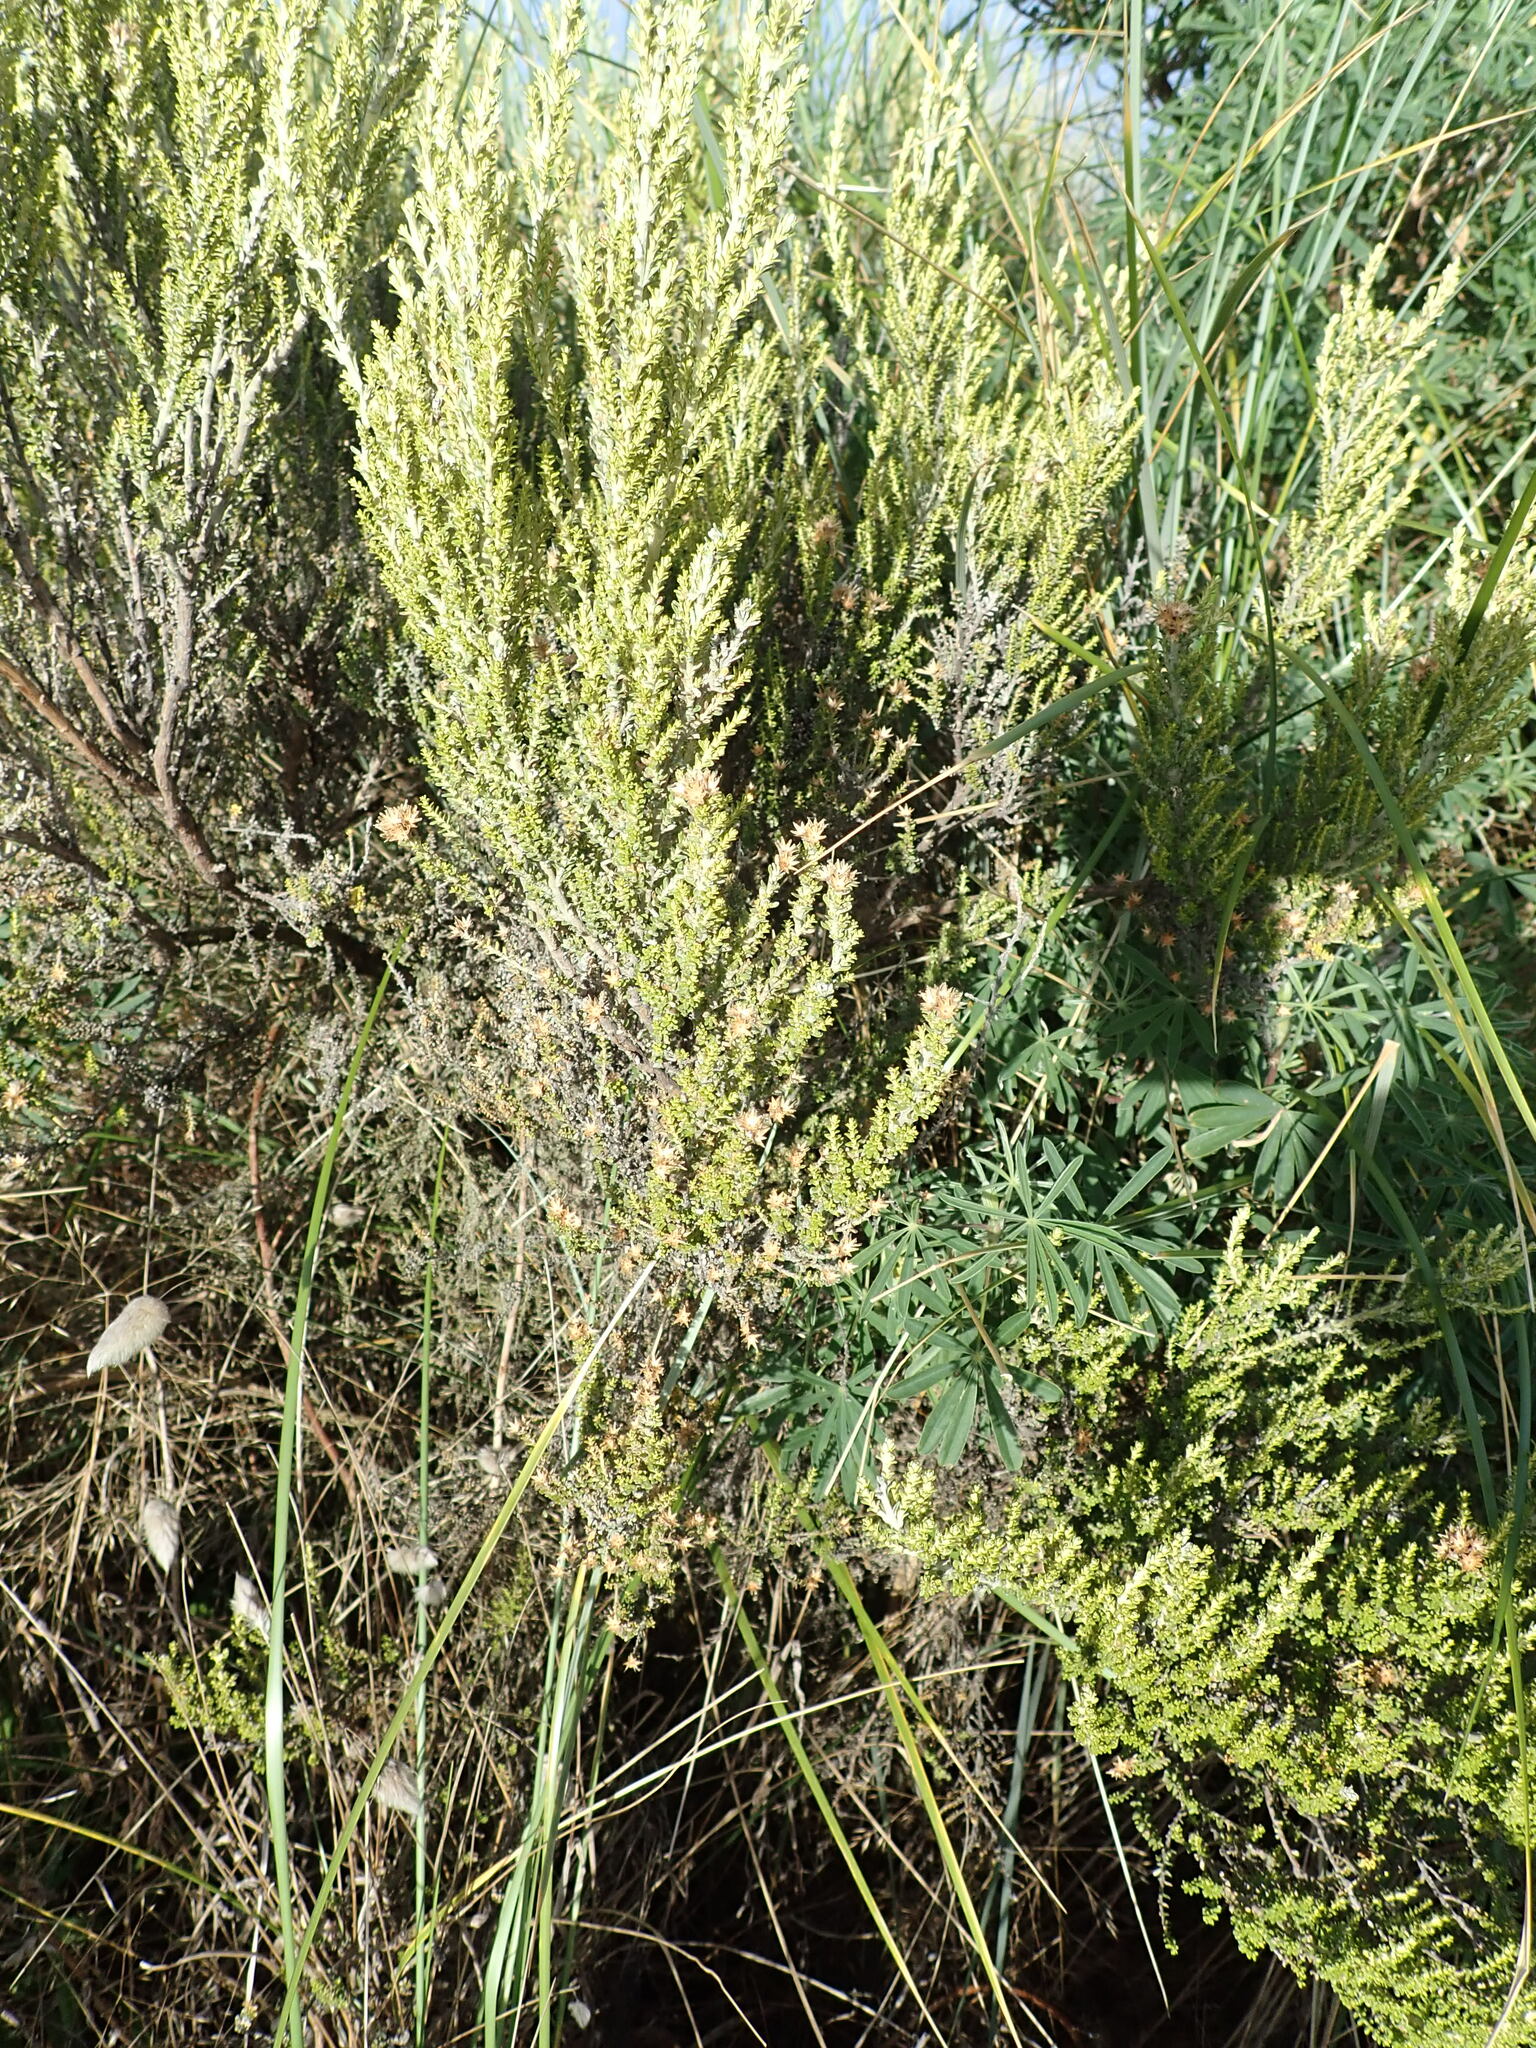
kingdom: Plantae
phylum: Tracheophyta
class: Magnoliopsida
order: Asterales
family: Asteraceae
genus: Ozothamnus
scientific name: Ozothamnus leptophyllus
